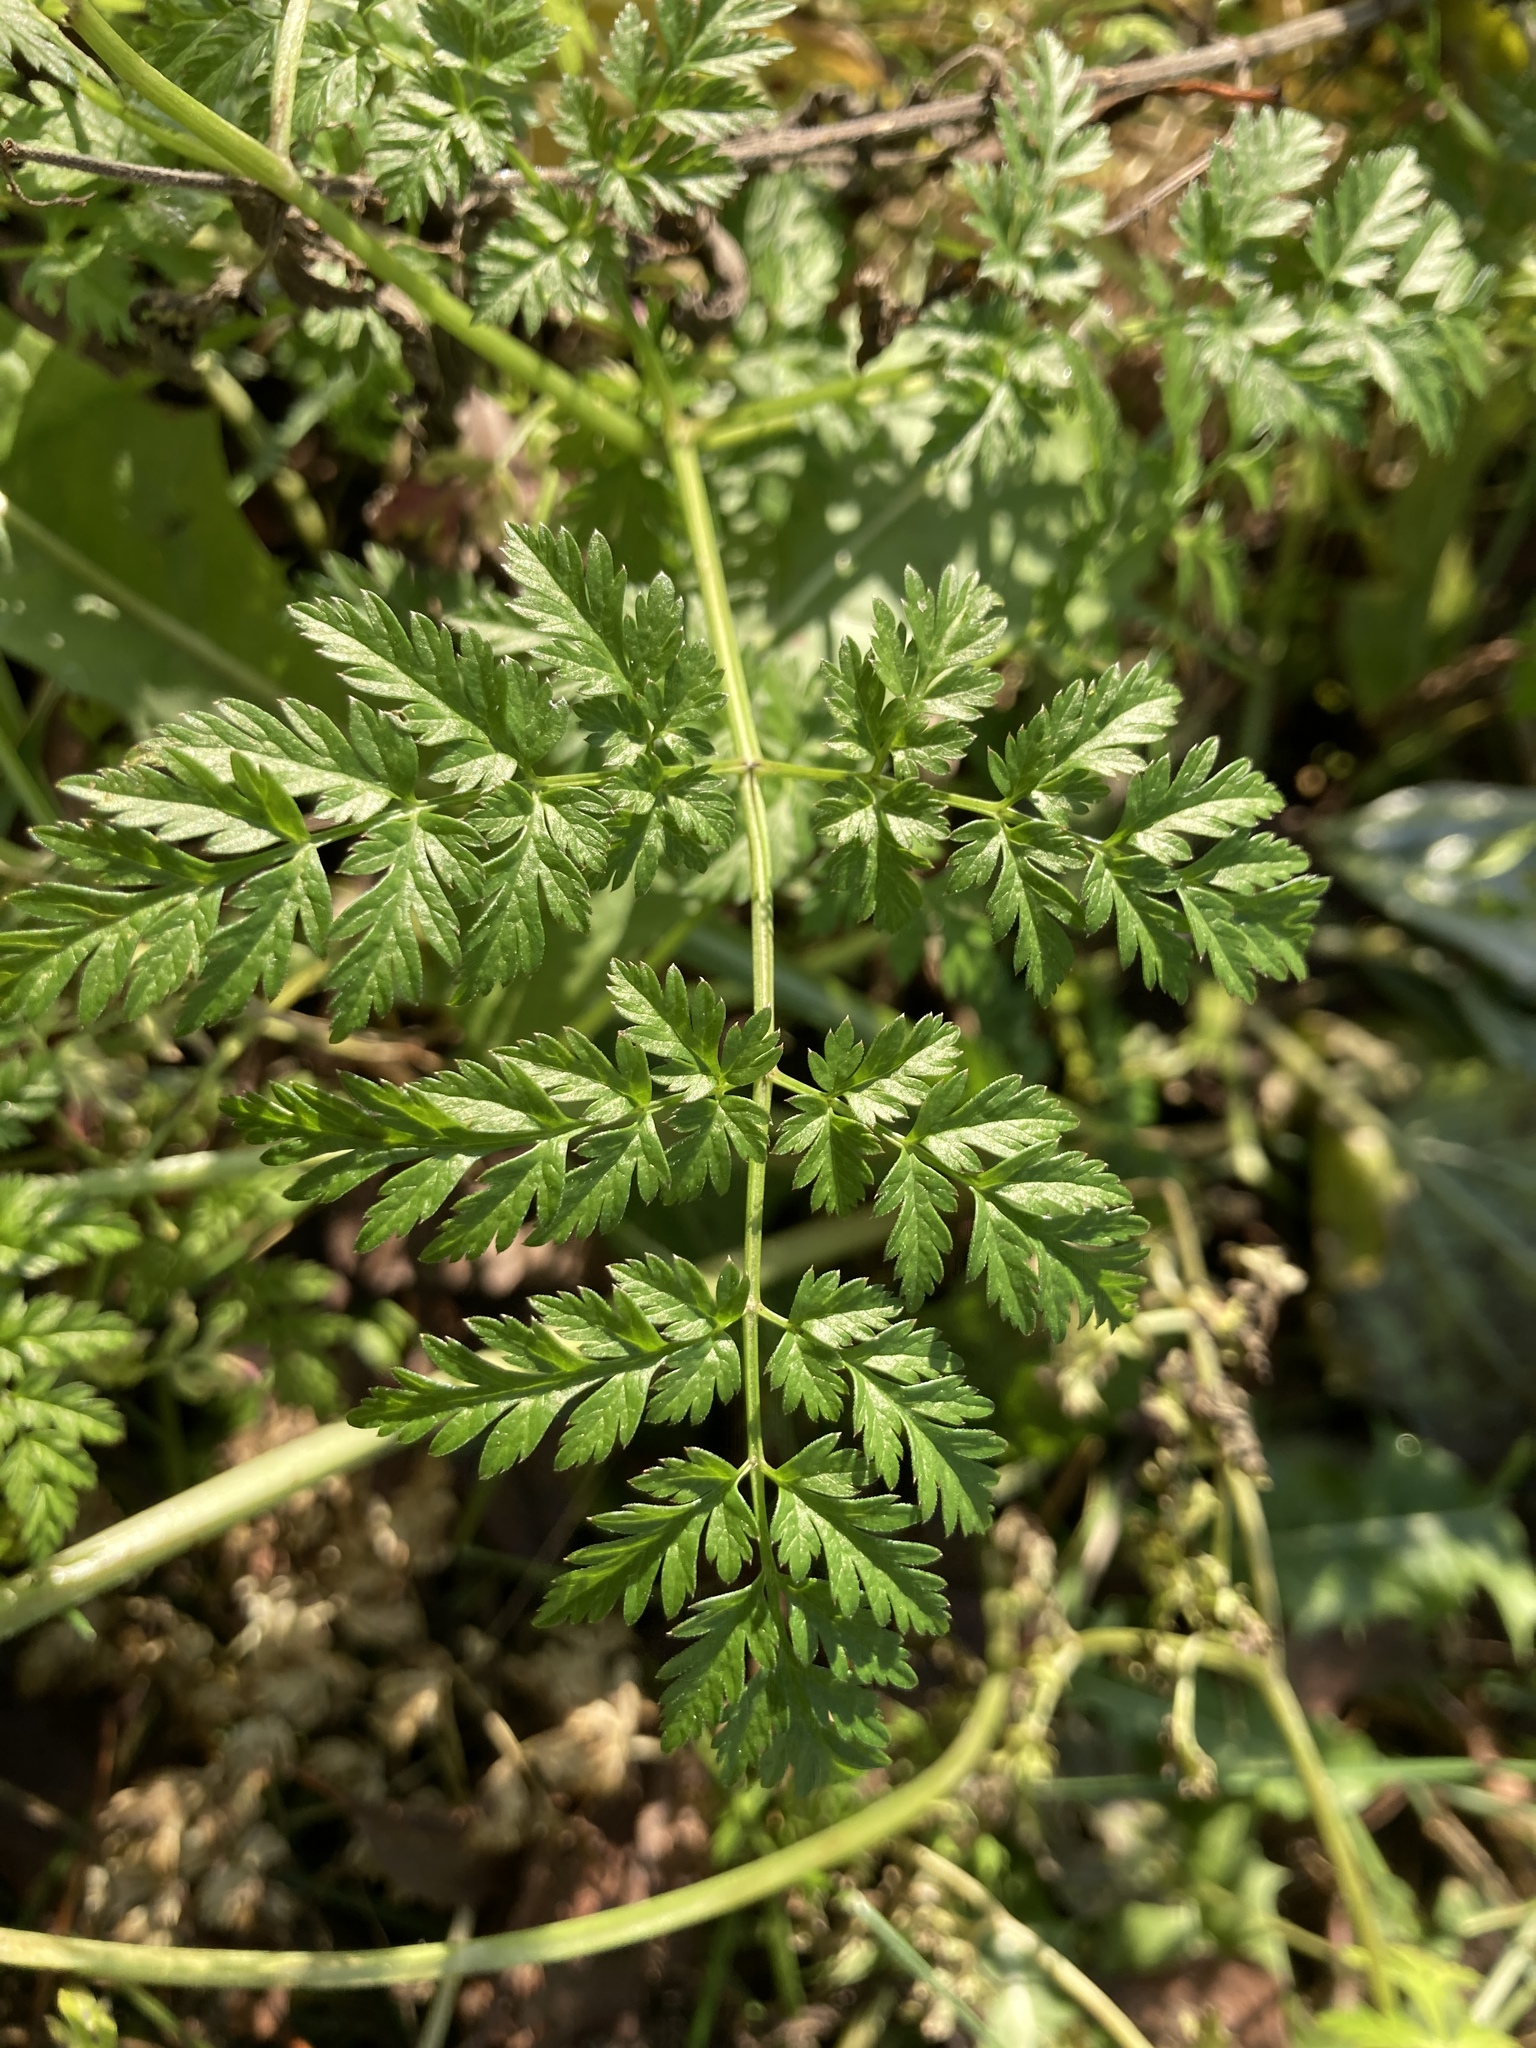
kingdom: Plantae
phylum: Tracheophyta
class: Magnoliopsida
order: Apiales
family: Apiaceae
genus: Anthriscus
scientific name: Anthriscus sylvestris
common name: Cow parsley
